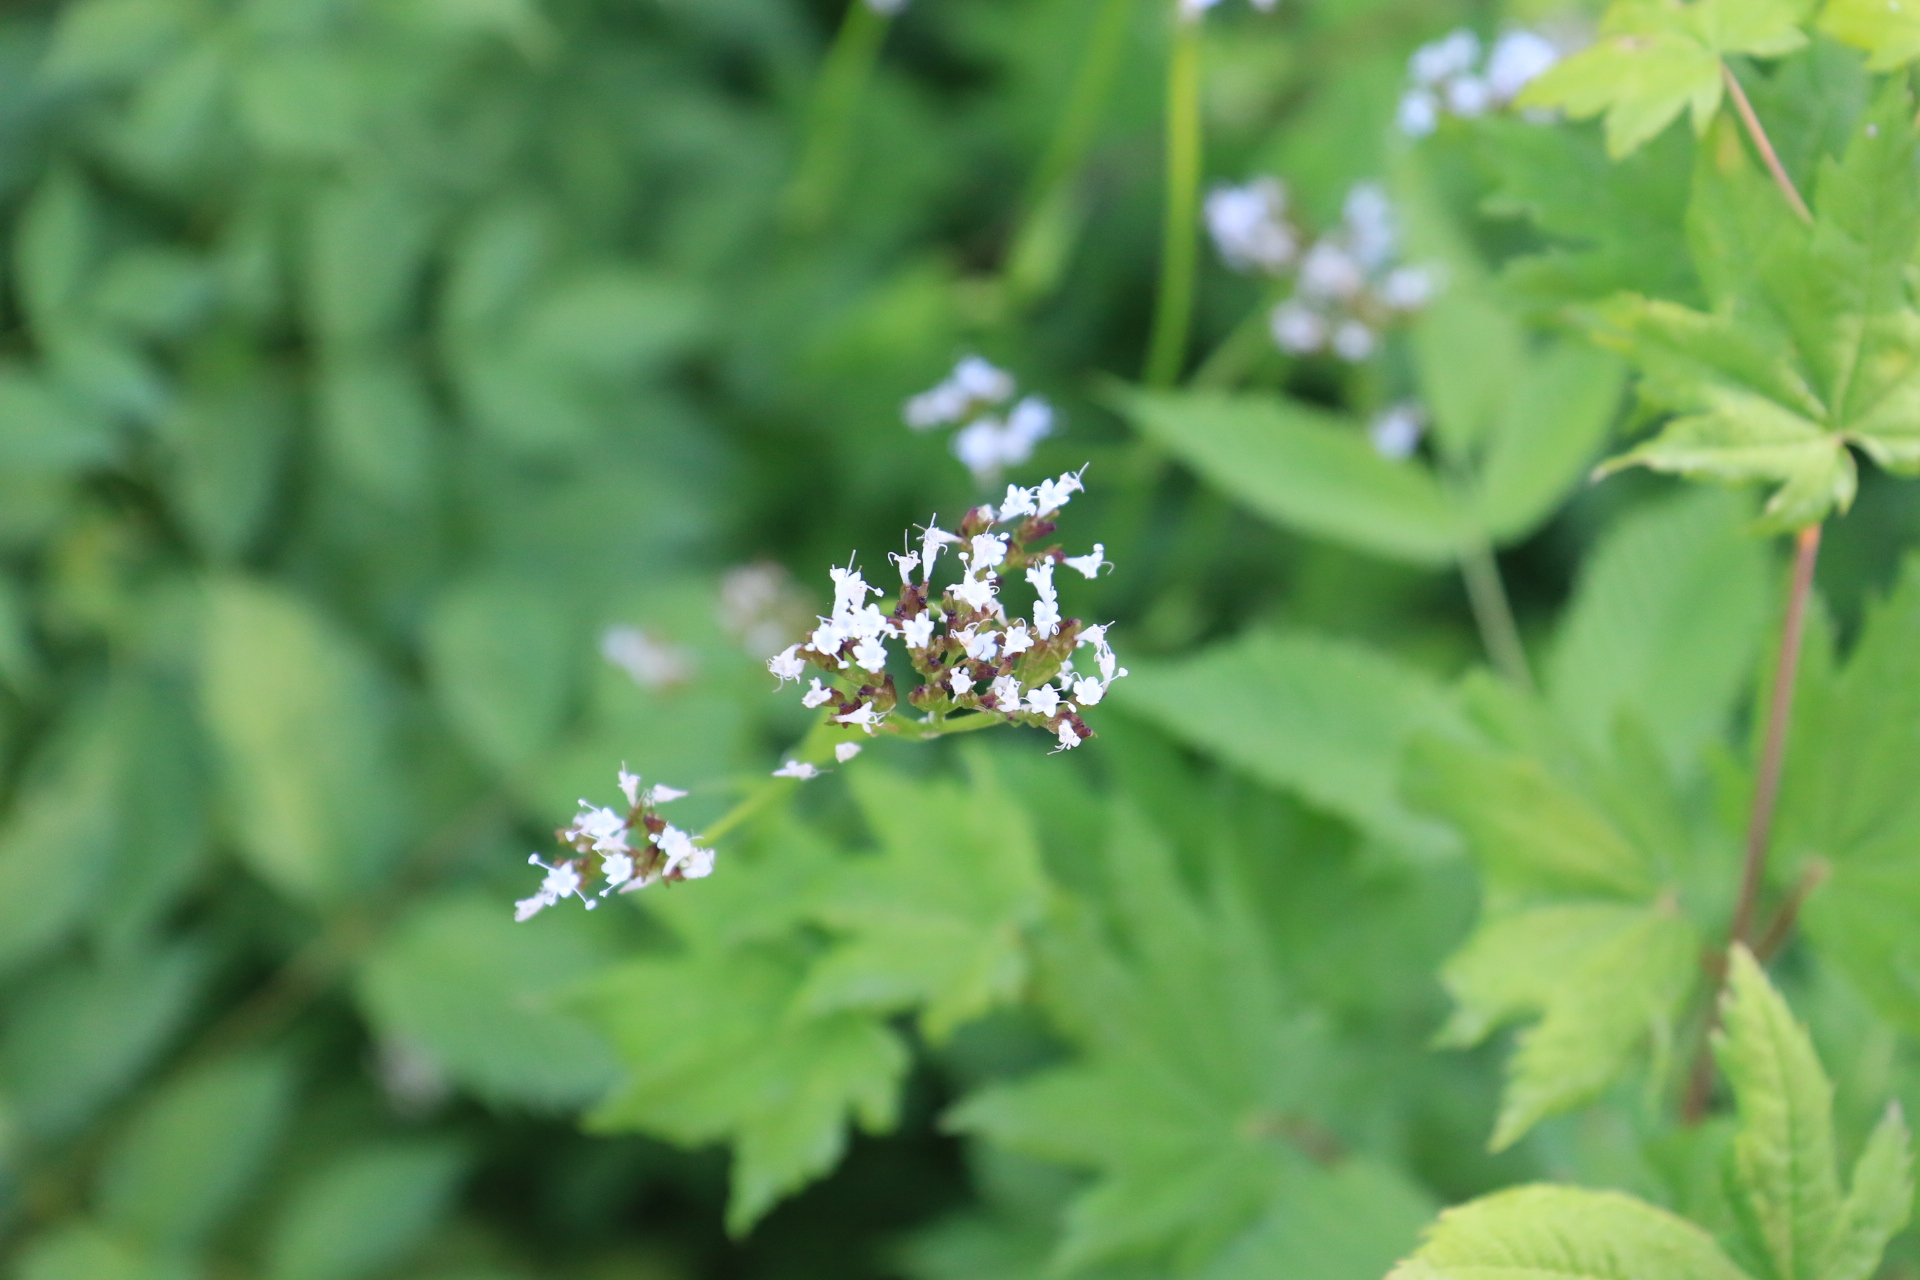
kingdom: Plantae
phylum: Tracheophyta
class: Magnoliopsida
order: Dipsacales
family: Caprifoliaceae
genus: Valeriana
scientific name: Valeriana sitchensis
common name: Pacific valerian
